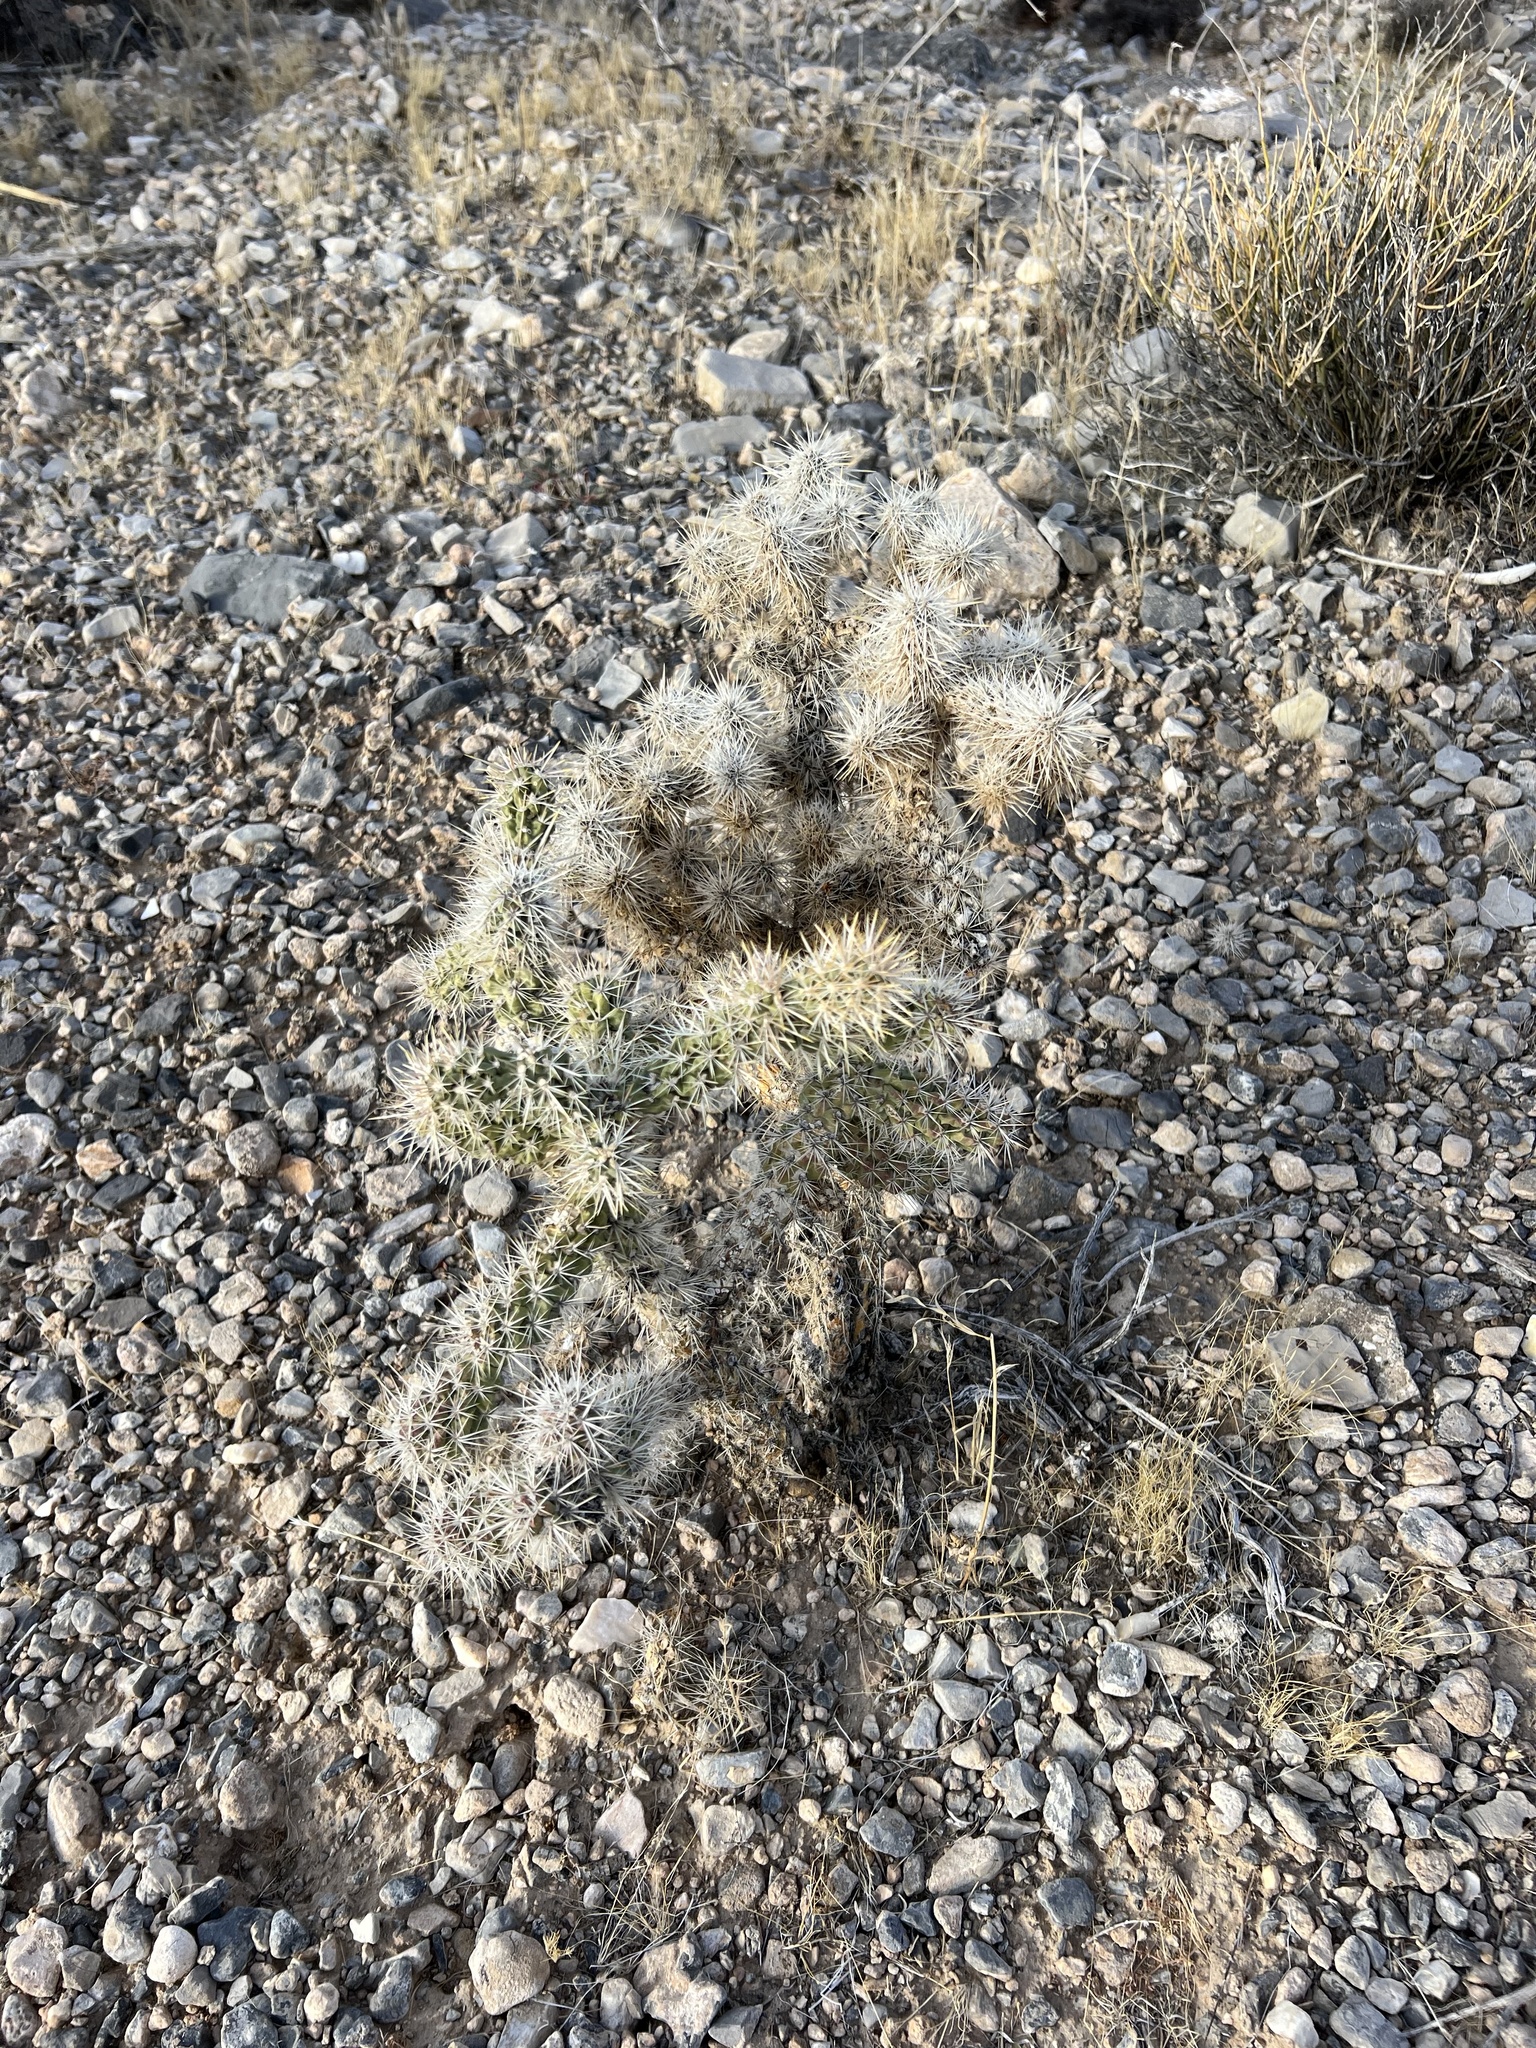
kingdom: Plantae
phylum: Tracheophyta
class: Magnoliopsida
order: Caryophyllales
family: Cactaceae
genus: Cylindropuntia
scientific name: Cylindropuntia echinocarpa
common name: Ground cholla
